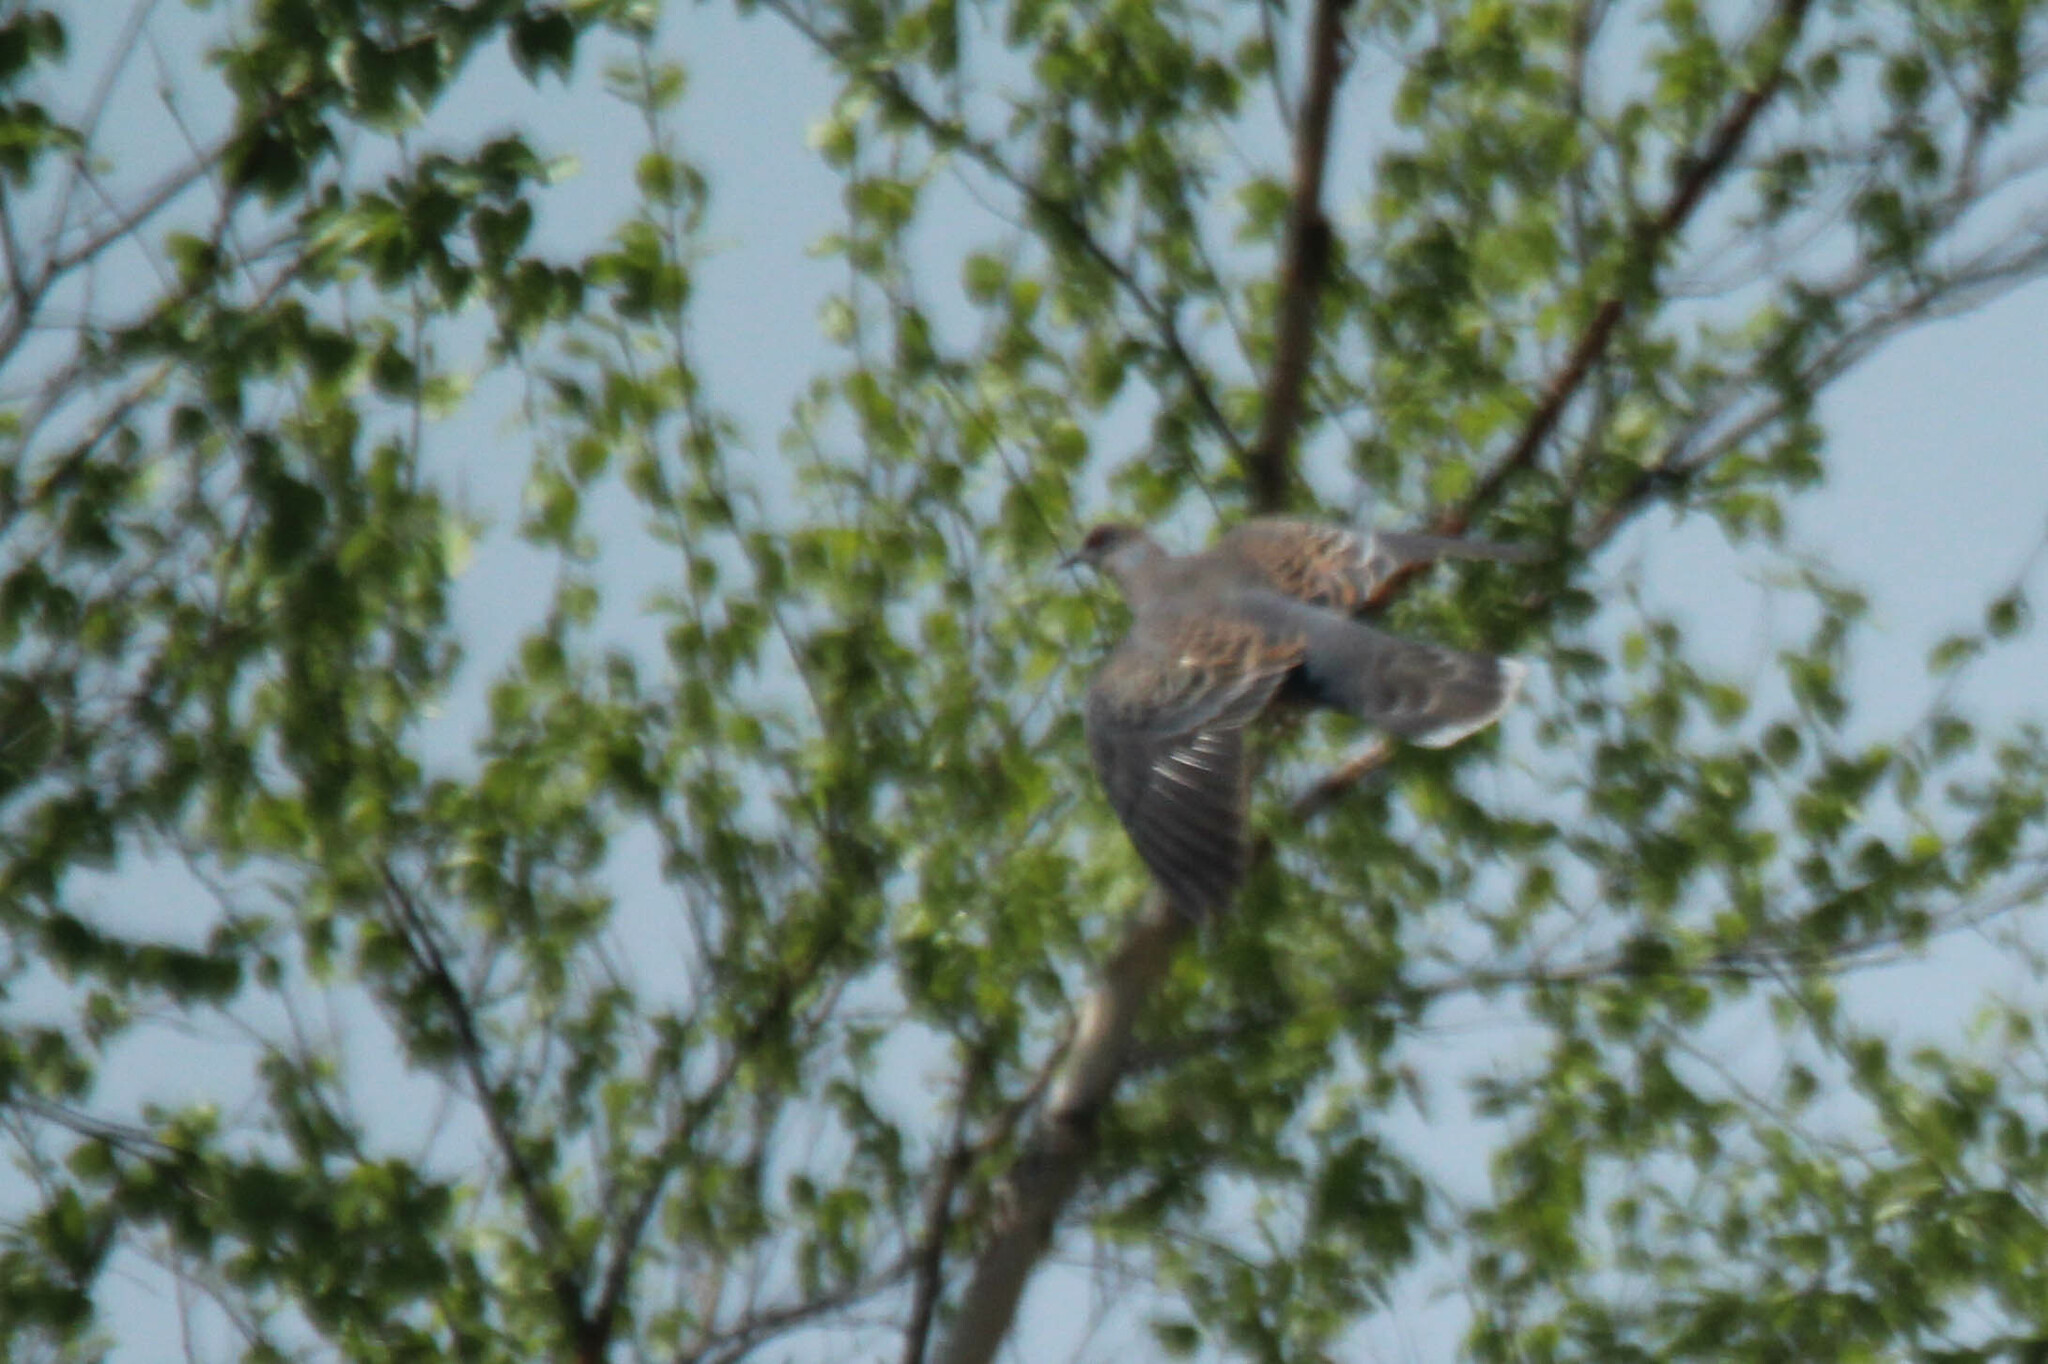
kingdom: Animalia
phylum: Chordata
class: Aves
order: Columbiformes
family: Columbidae
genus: Streptopelia
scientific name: Streptopelia orientalis
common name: Oriental turtle dove
